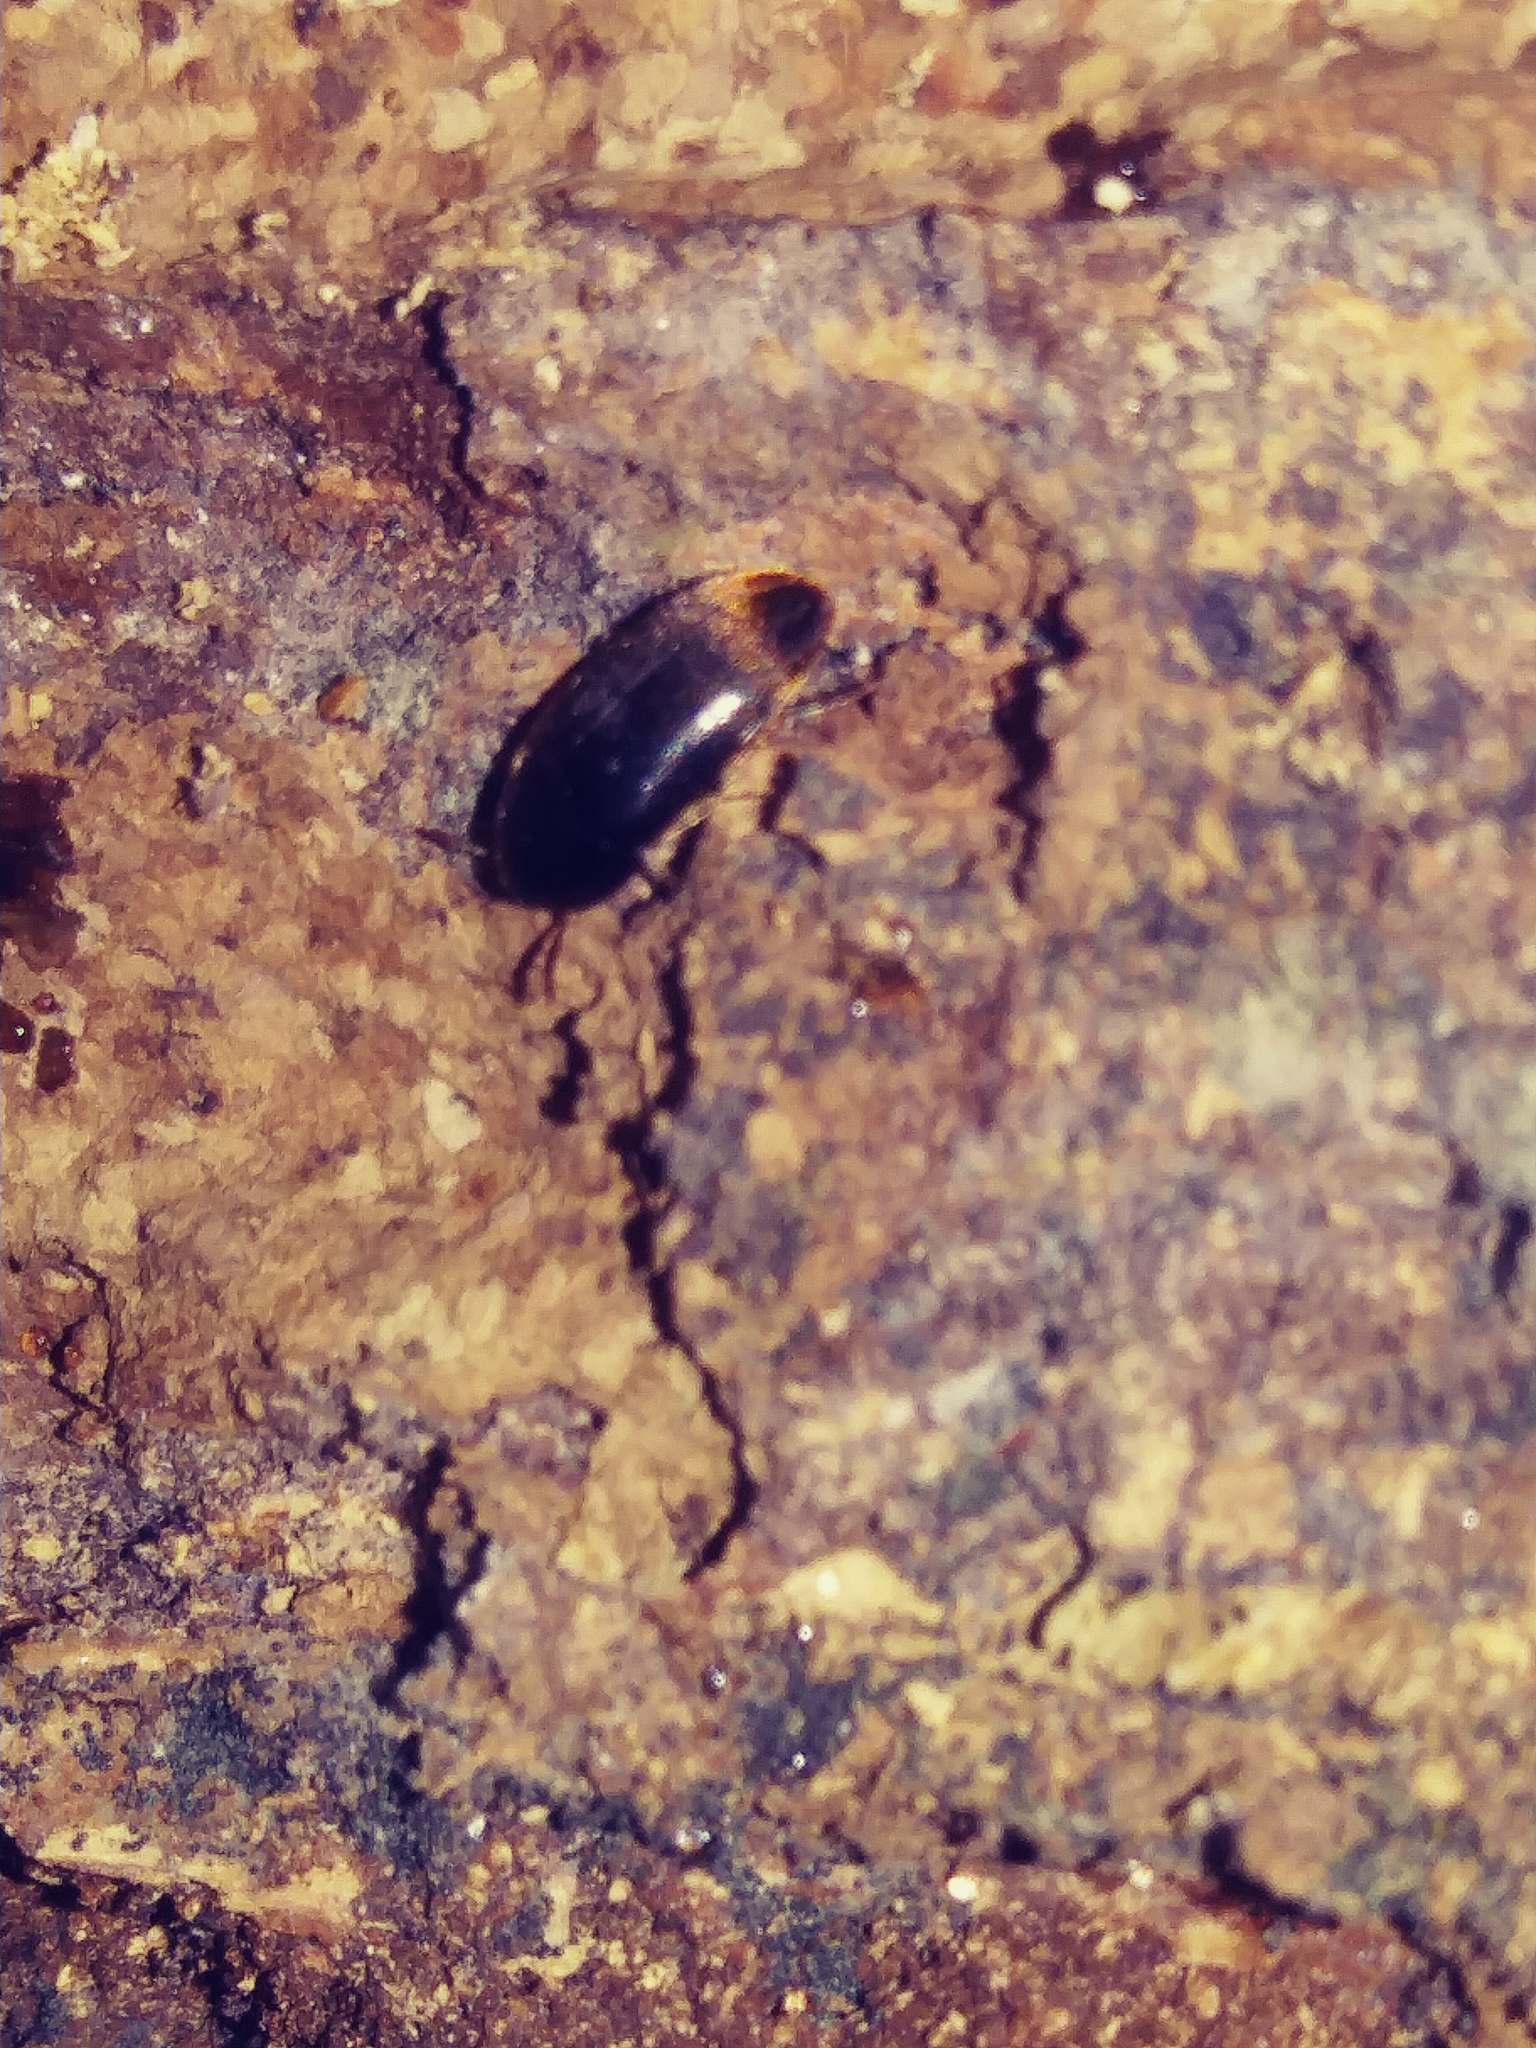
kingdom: Animalia
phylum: Arthropoda
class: Insecta
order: Coleoptera
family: Tetratomidae
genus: Eustrophus
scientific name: Eustrophus tomentosus
